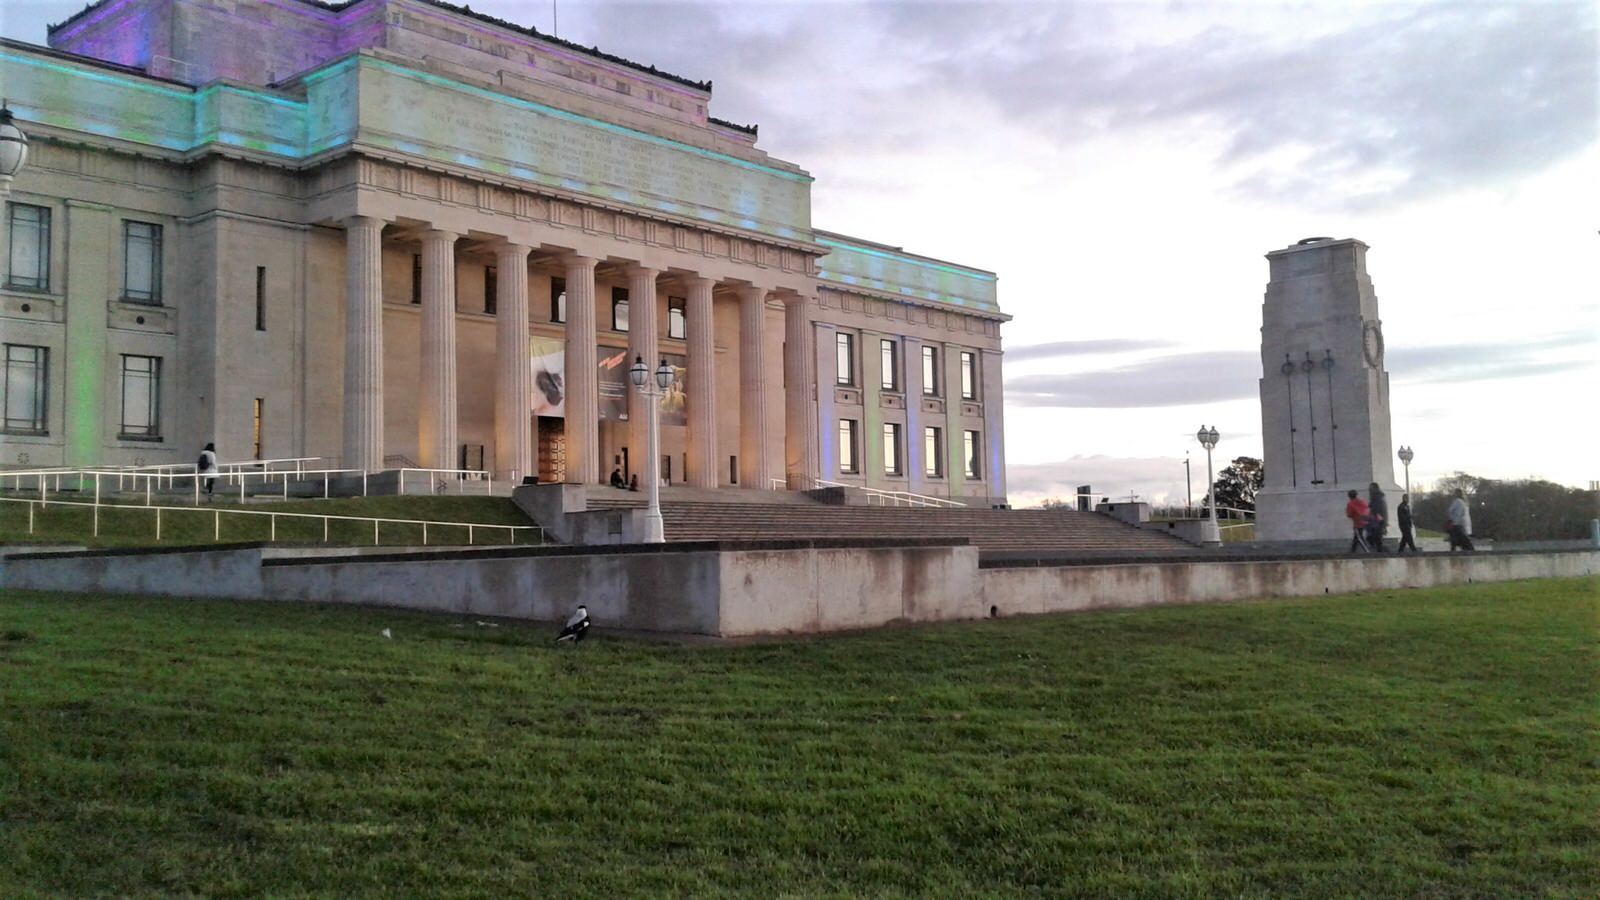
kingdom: Animalia
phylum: Chordata
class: Aves
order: Passeriformes
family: Cracticidae
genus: Gymnorhina
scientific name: Gymnorhina tibicen
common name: Australian magpie
